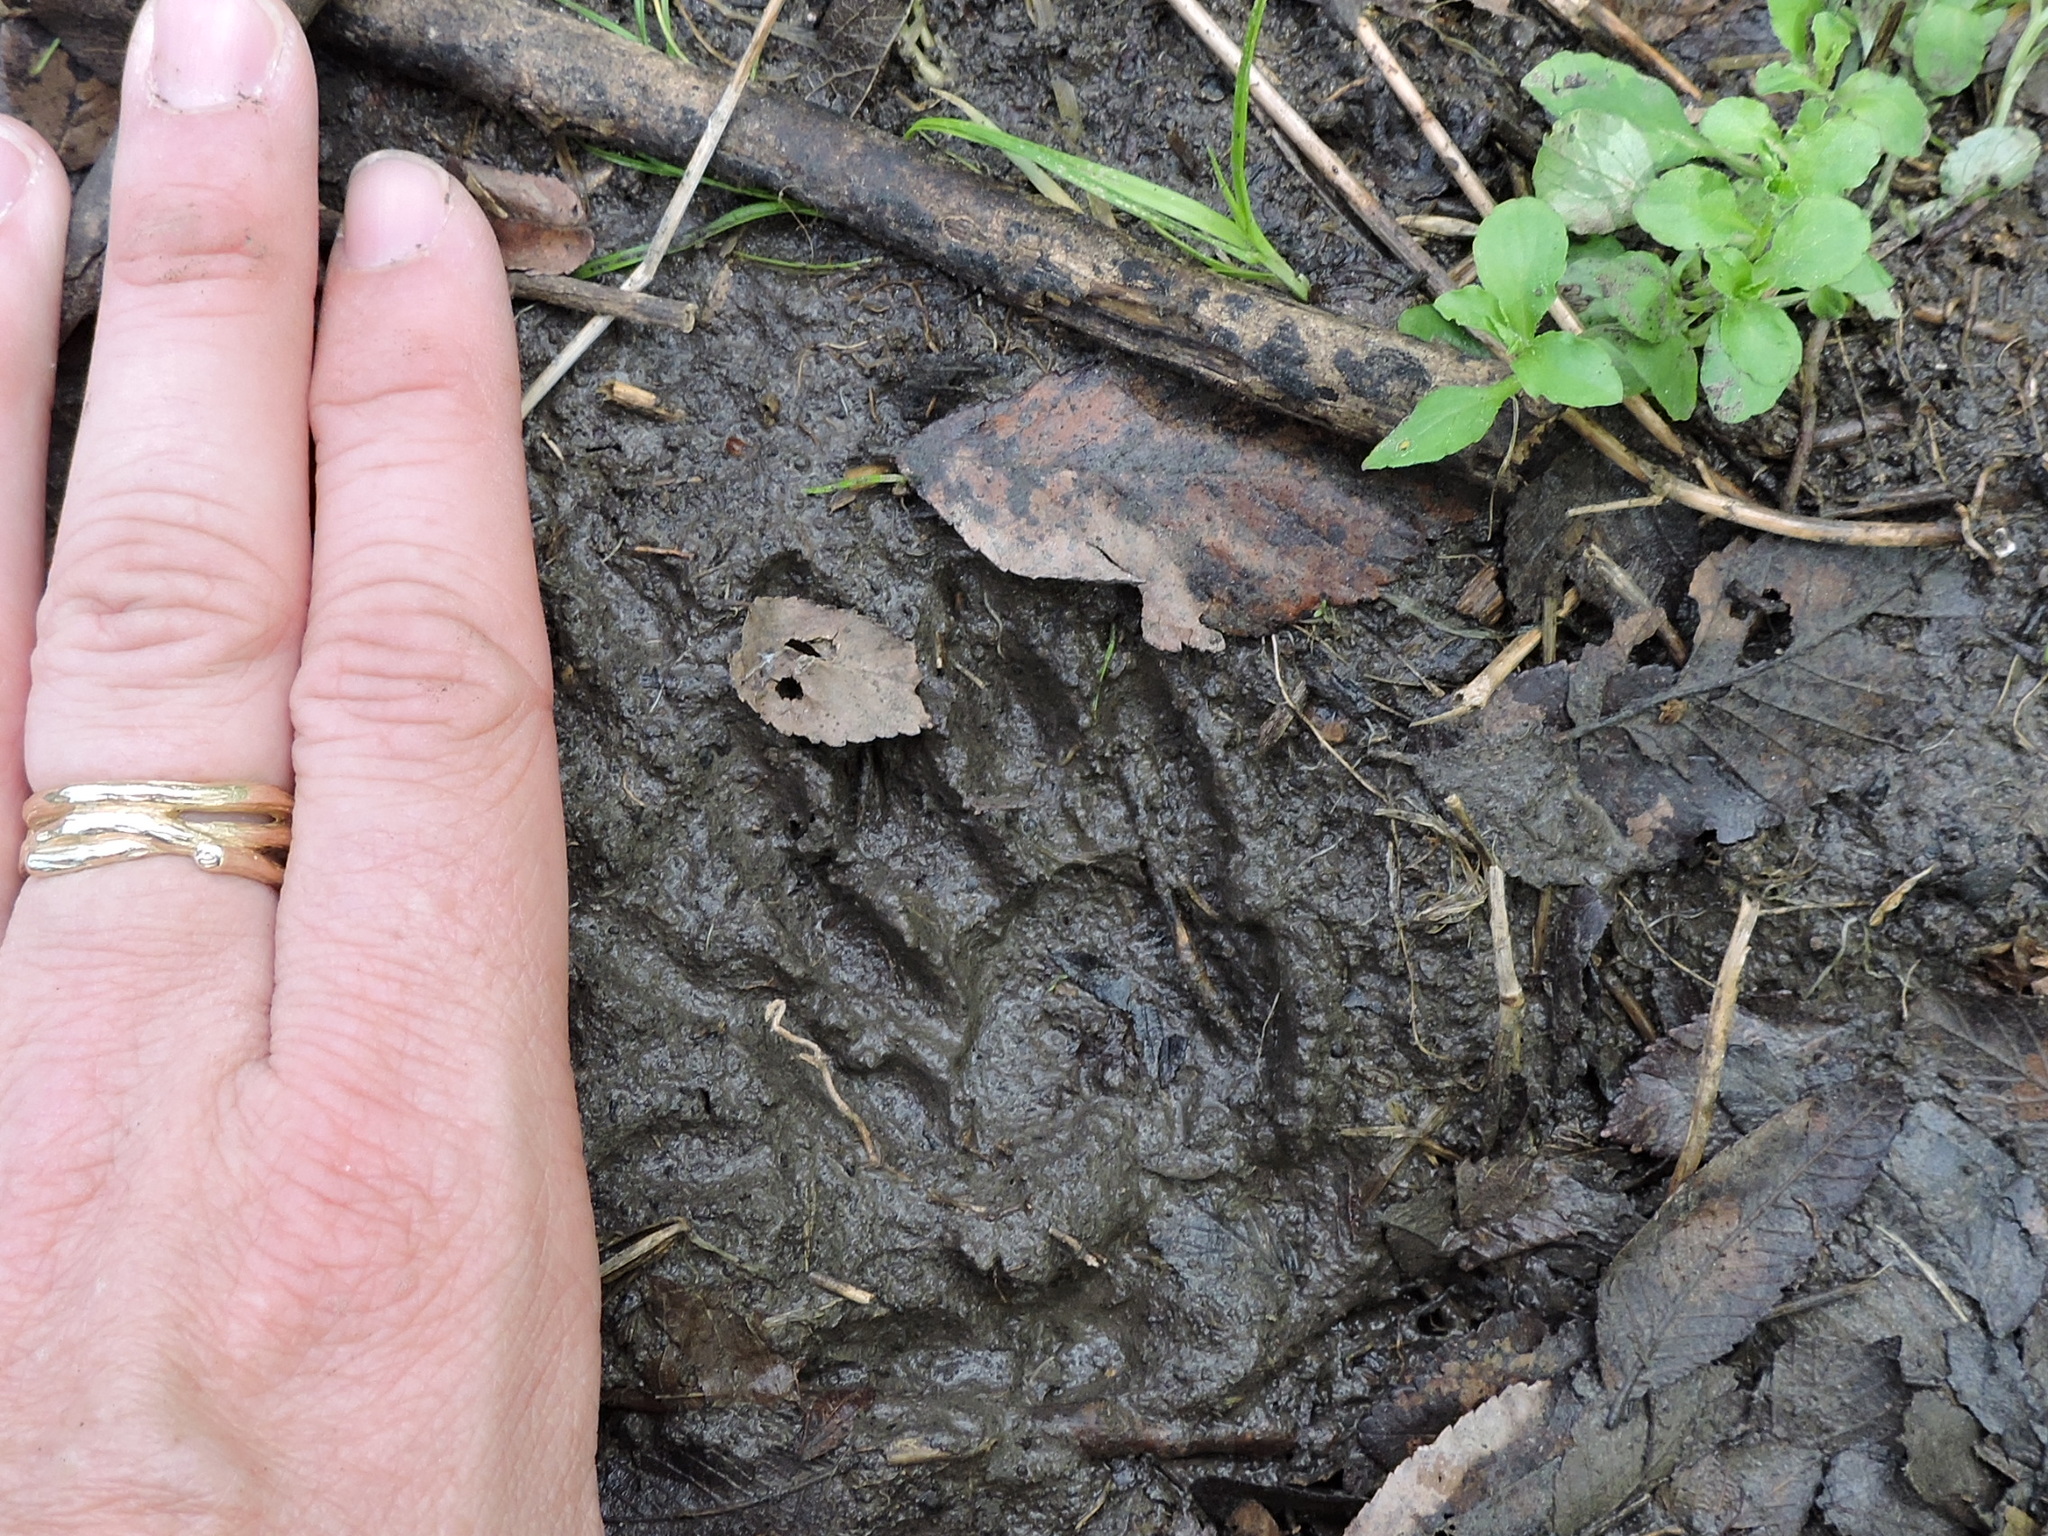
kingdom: Animalia
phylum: Chordata
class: Mammalia
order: Carnivora
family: Procyonidae
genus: Procyon
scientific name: Procyon lotor
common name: Raccoon
